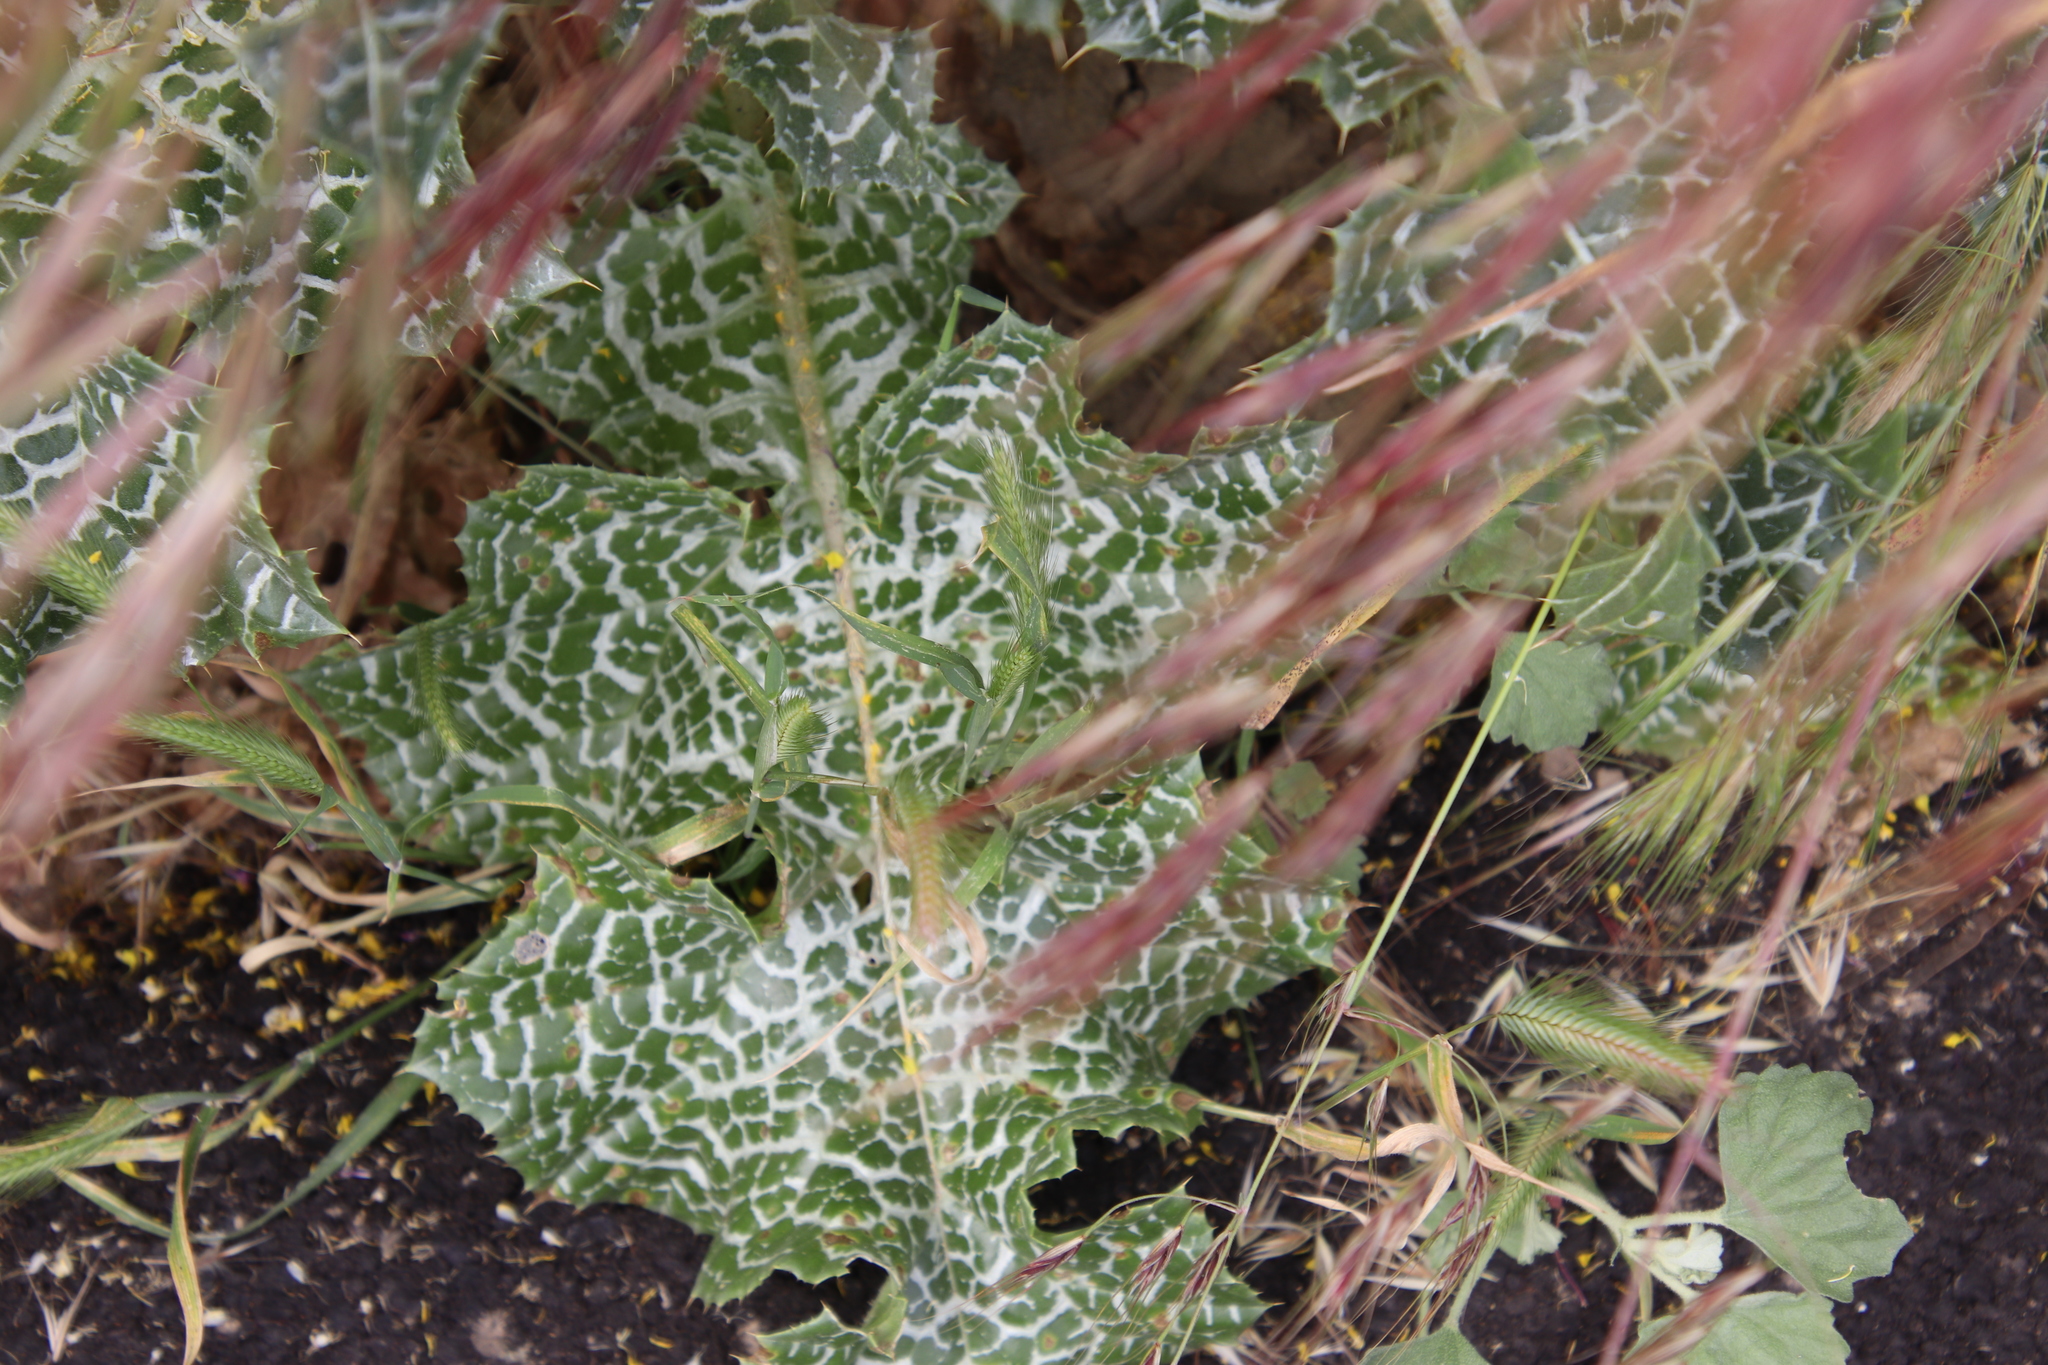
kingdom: Plantae
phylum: Tracheophyta
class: Magnoliopsida
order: Asterales
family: Asteraceae
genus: Silybum
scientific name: Silybum marianum
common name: Milk thistle
